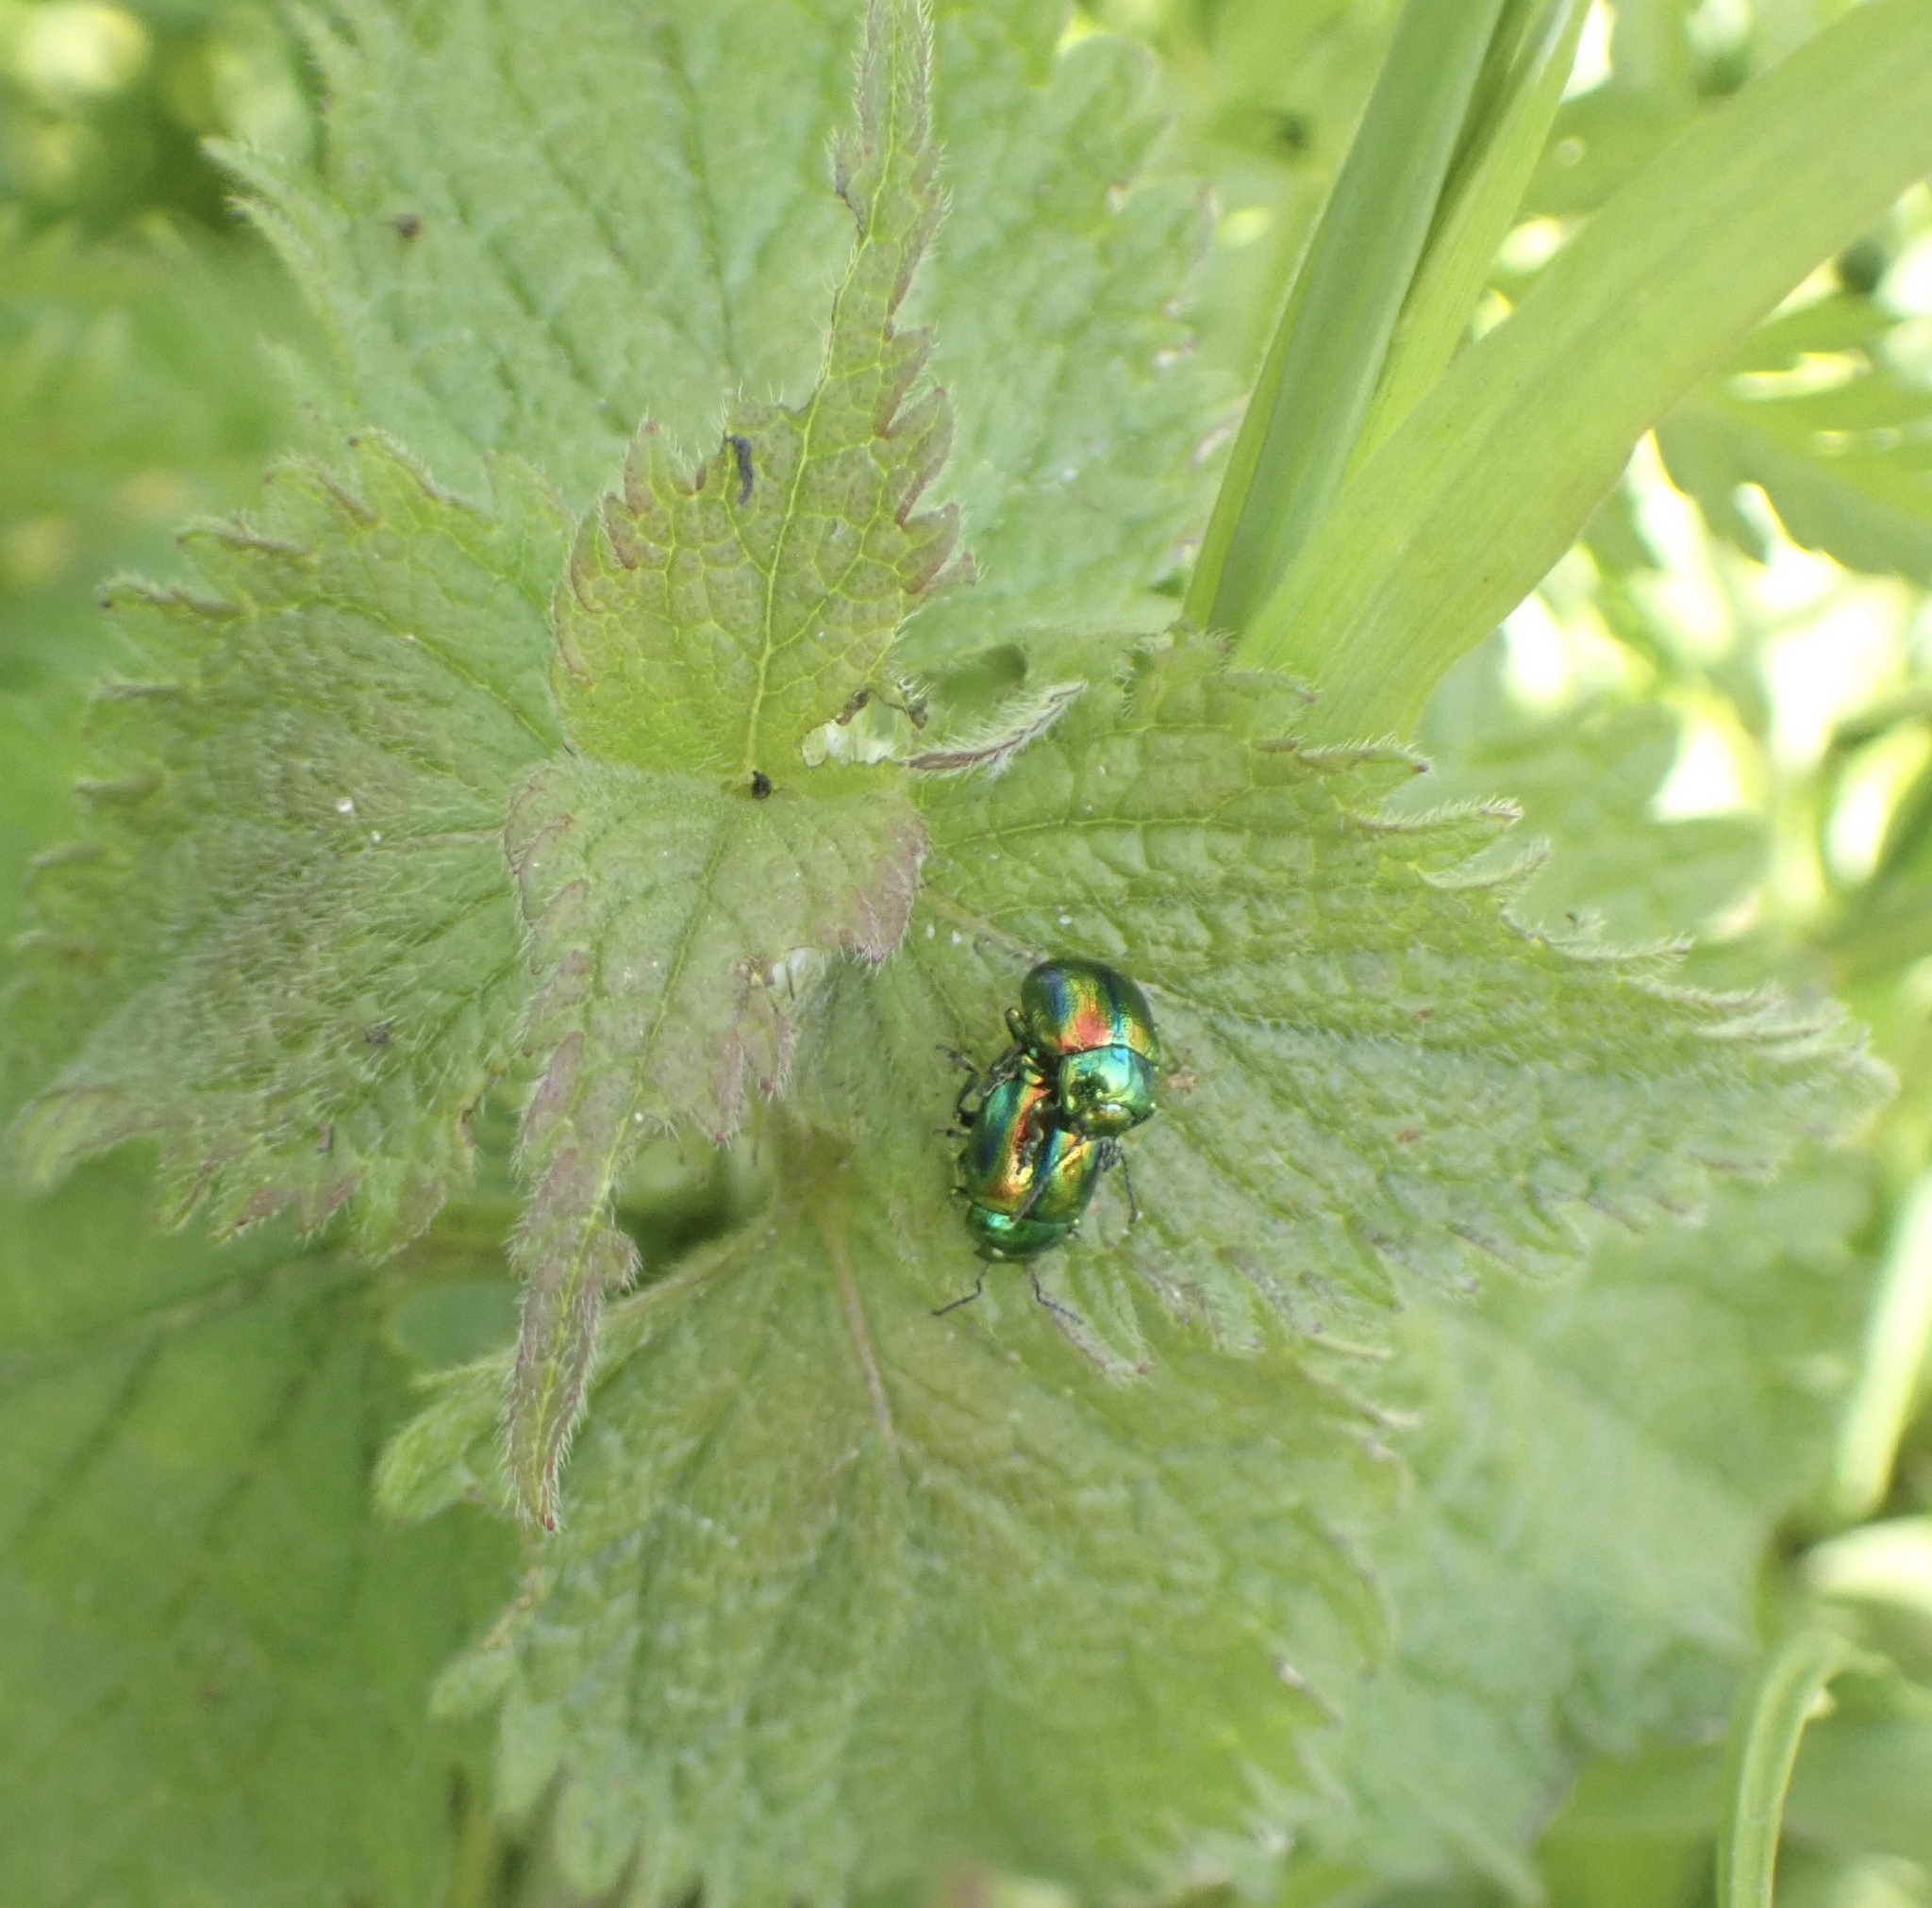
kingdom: Animalia
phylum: Arthropoda
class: Insecta
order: Coleoptera
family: Chrysomelidae
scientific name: Chrysomelidae
